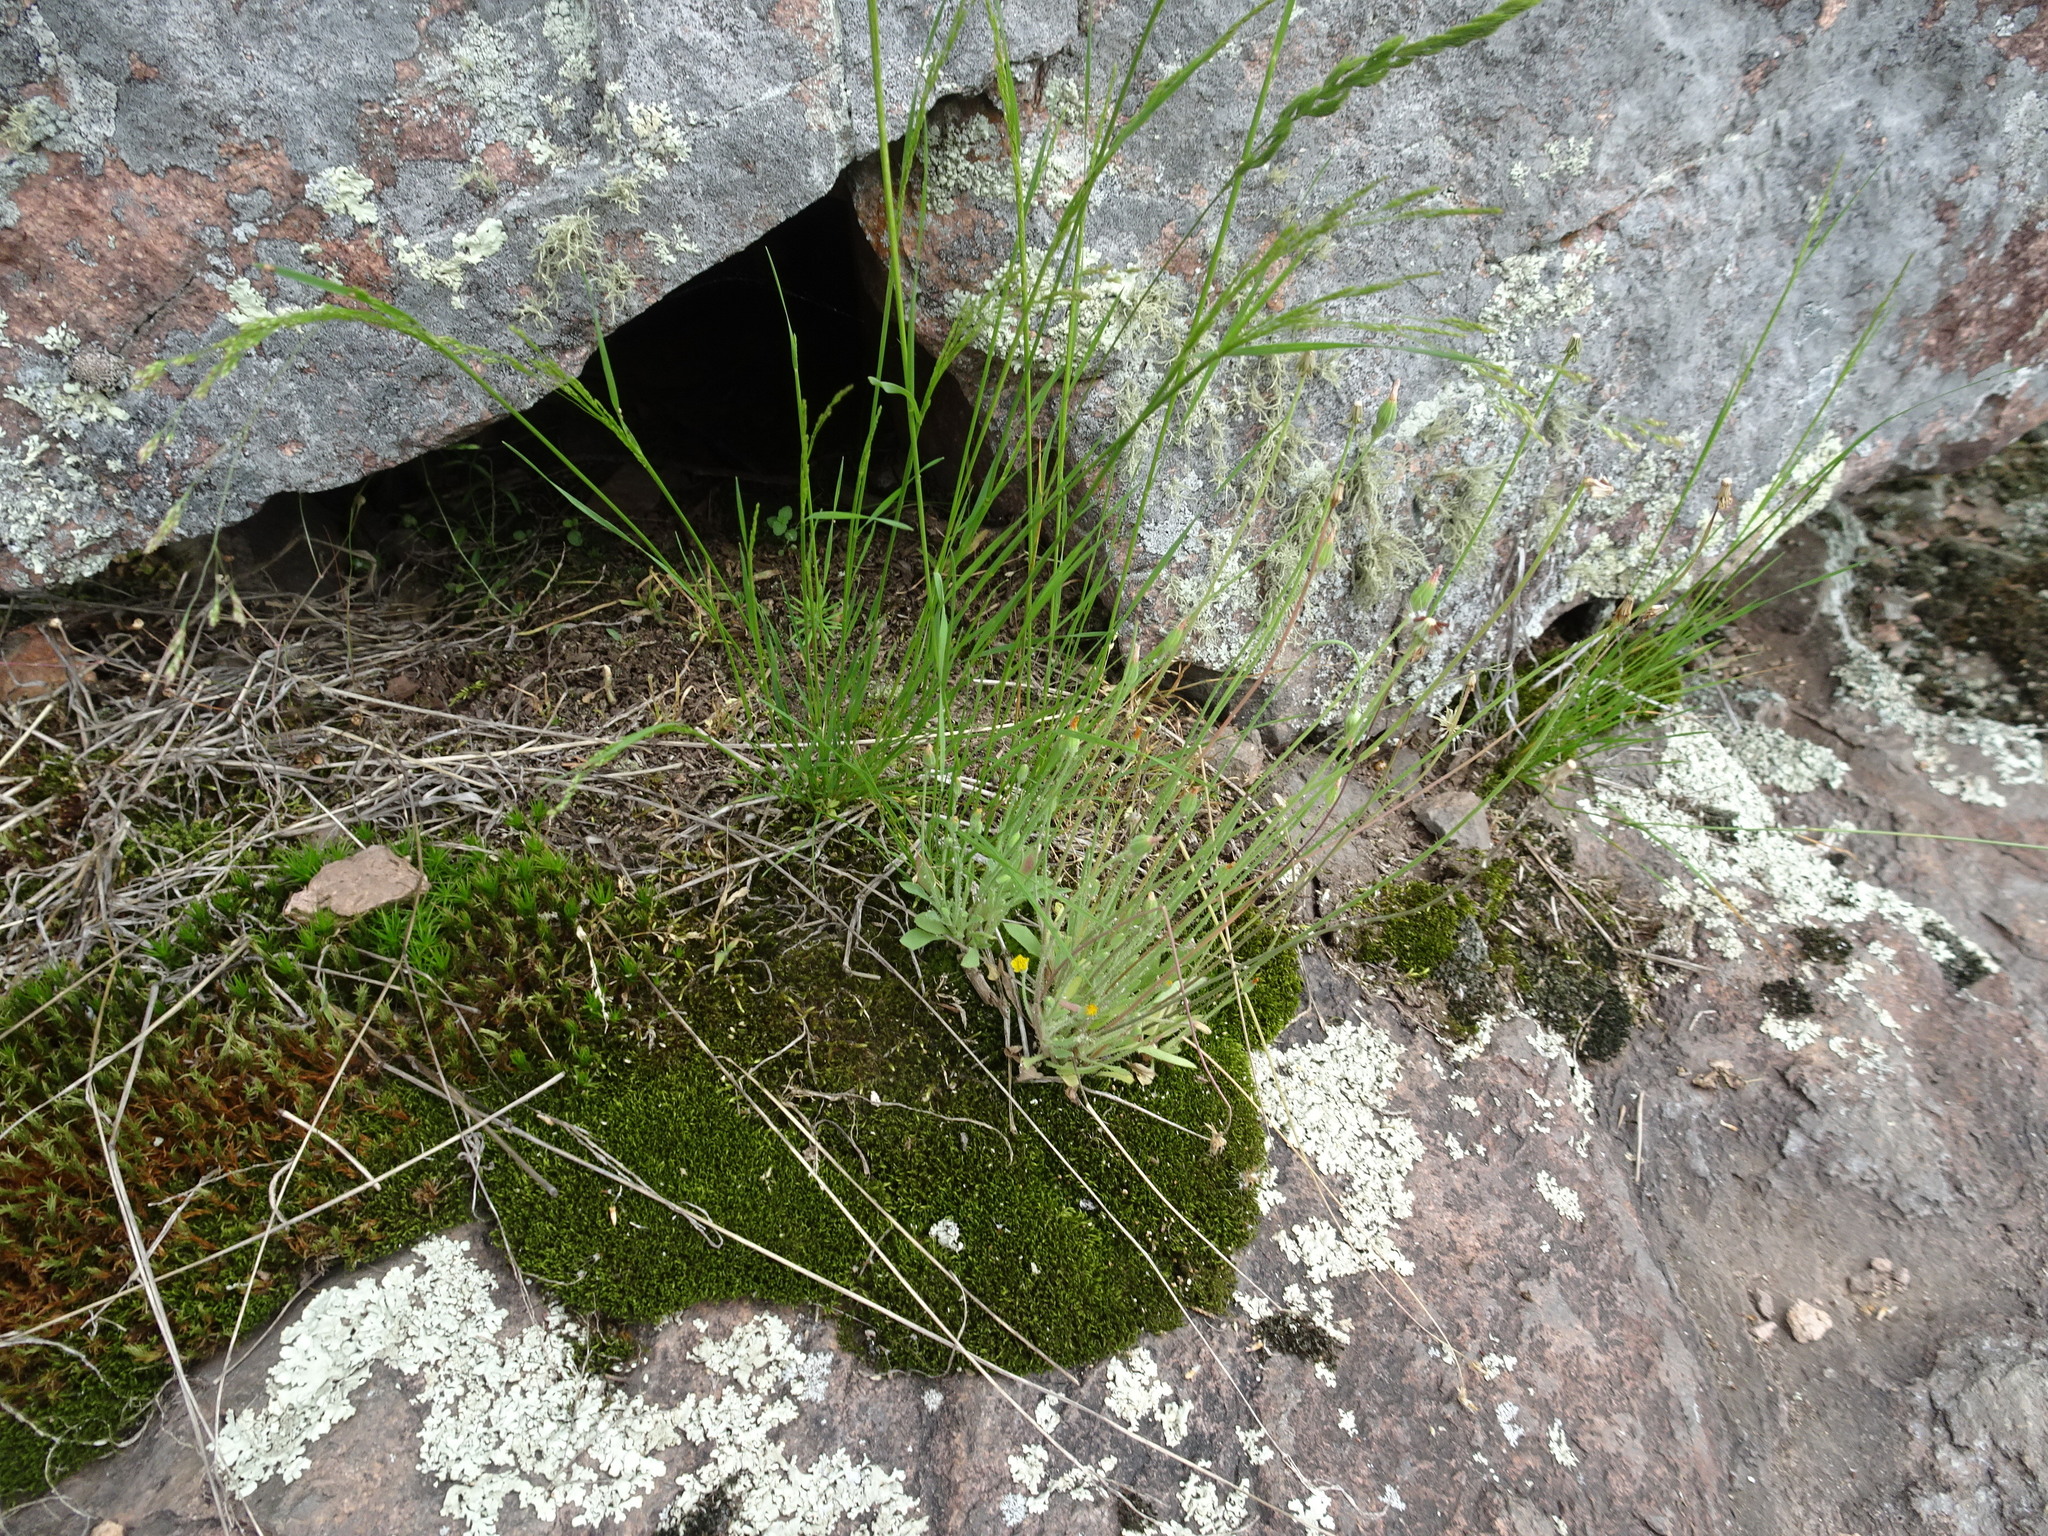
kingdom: Plantae
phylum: Tracheophyta
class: Magnoliopsida
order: Asterales
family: Asteraceae
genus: Krigia
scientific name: Krigia virginica
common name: Virginia dwarf-dandelion
